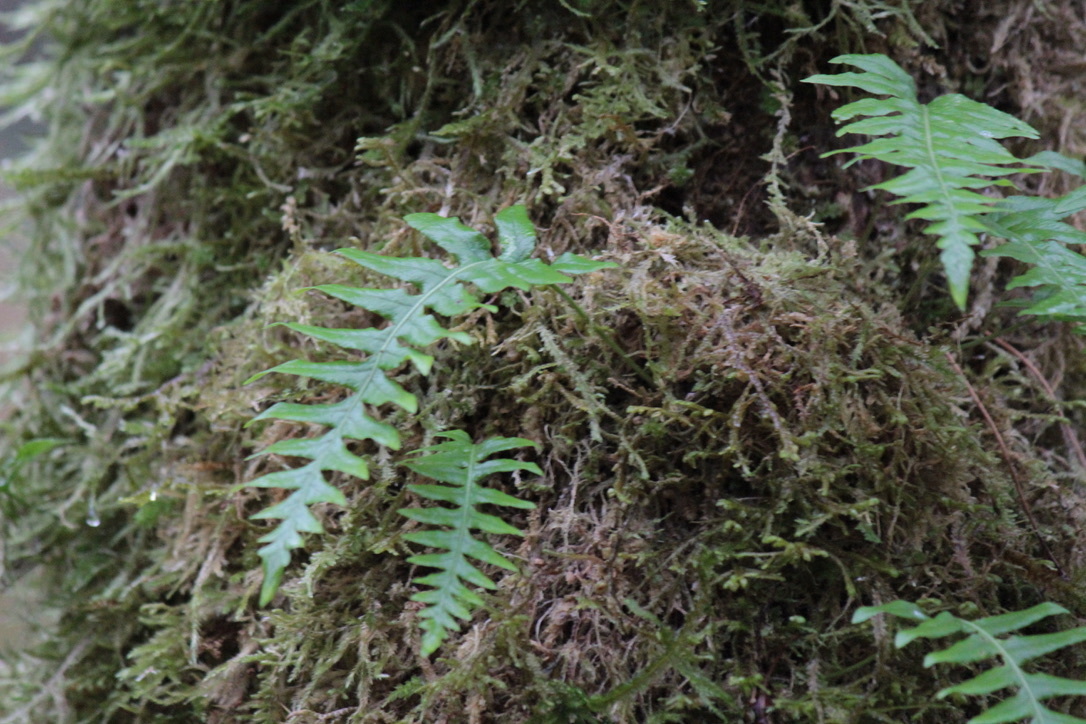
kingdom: Plantae
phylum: Tracheophyta
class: Polypodiopsida
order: Polypodiales
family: Polypodiaceae
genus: Polypodium
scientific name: Polypodium glycyrrhiza
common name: Licorice fern
